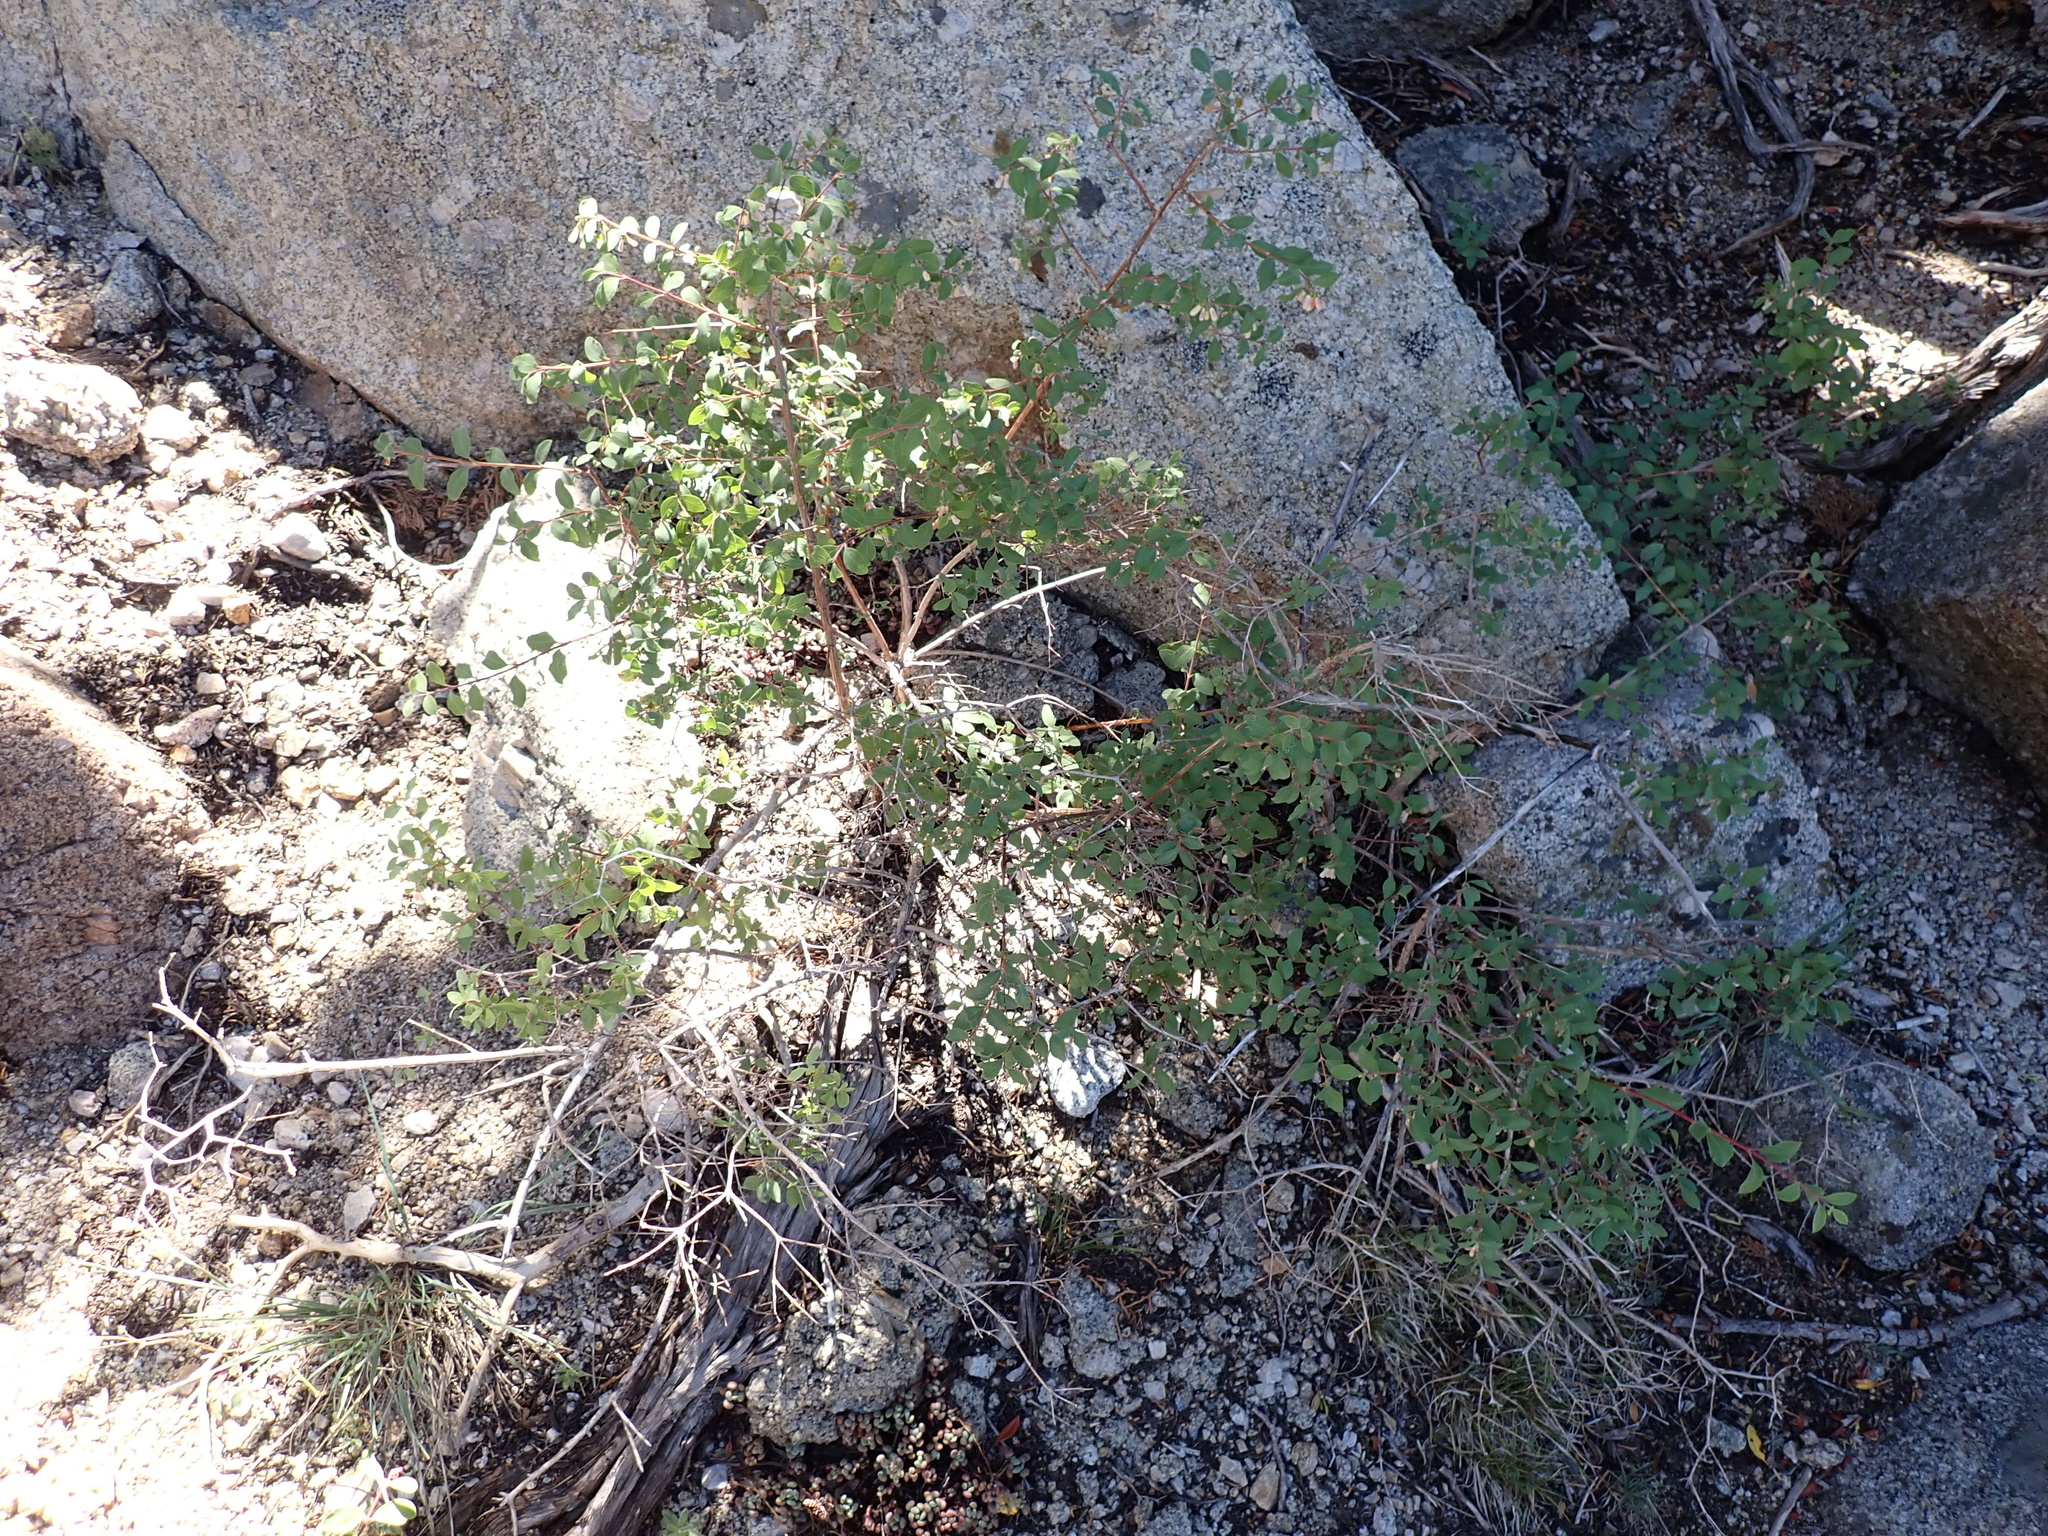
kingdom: Plantae
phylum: Tracheophyta
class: Magnoliopsida
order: Dipsacales
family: Caprifoliaceae
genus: Symphoricarpos
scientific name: Symphoricarpos rotundifolius
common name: Round-leaved snowberry
